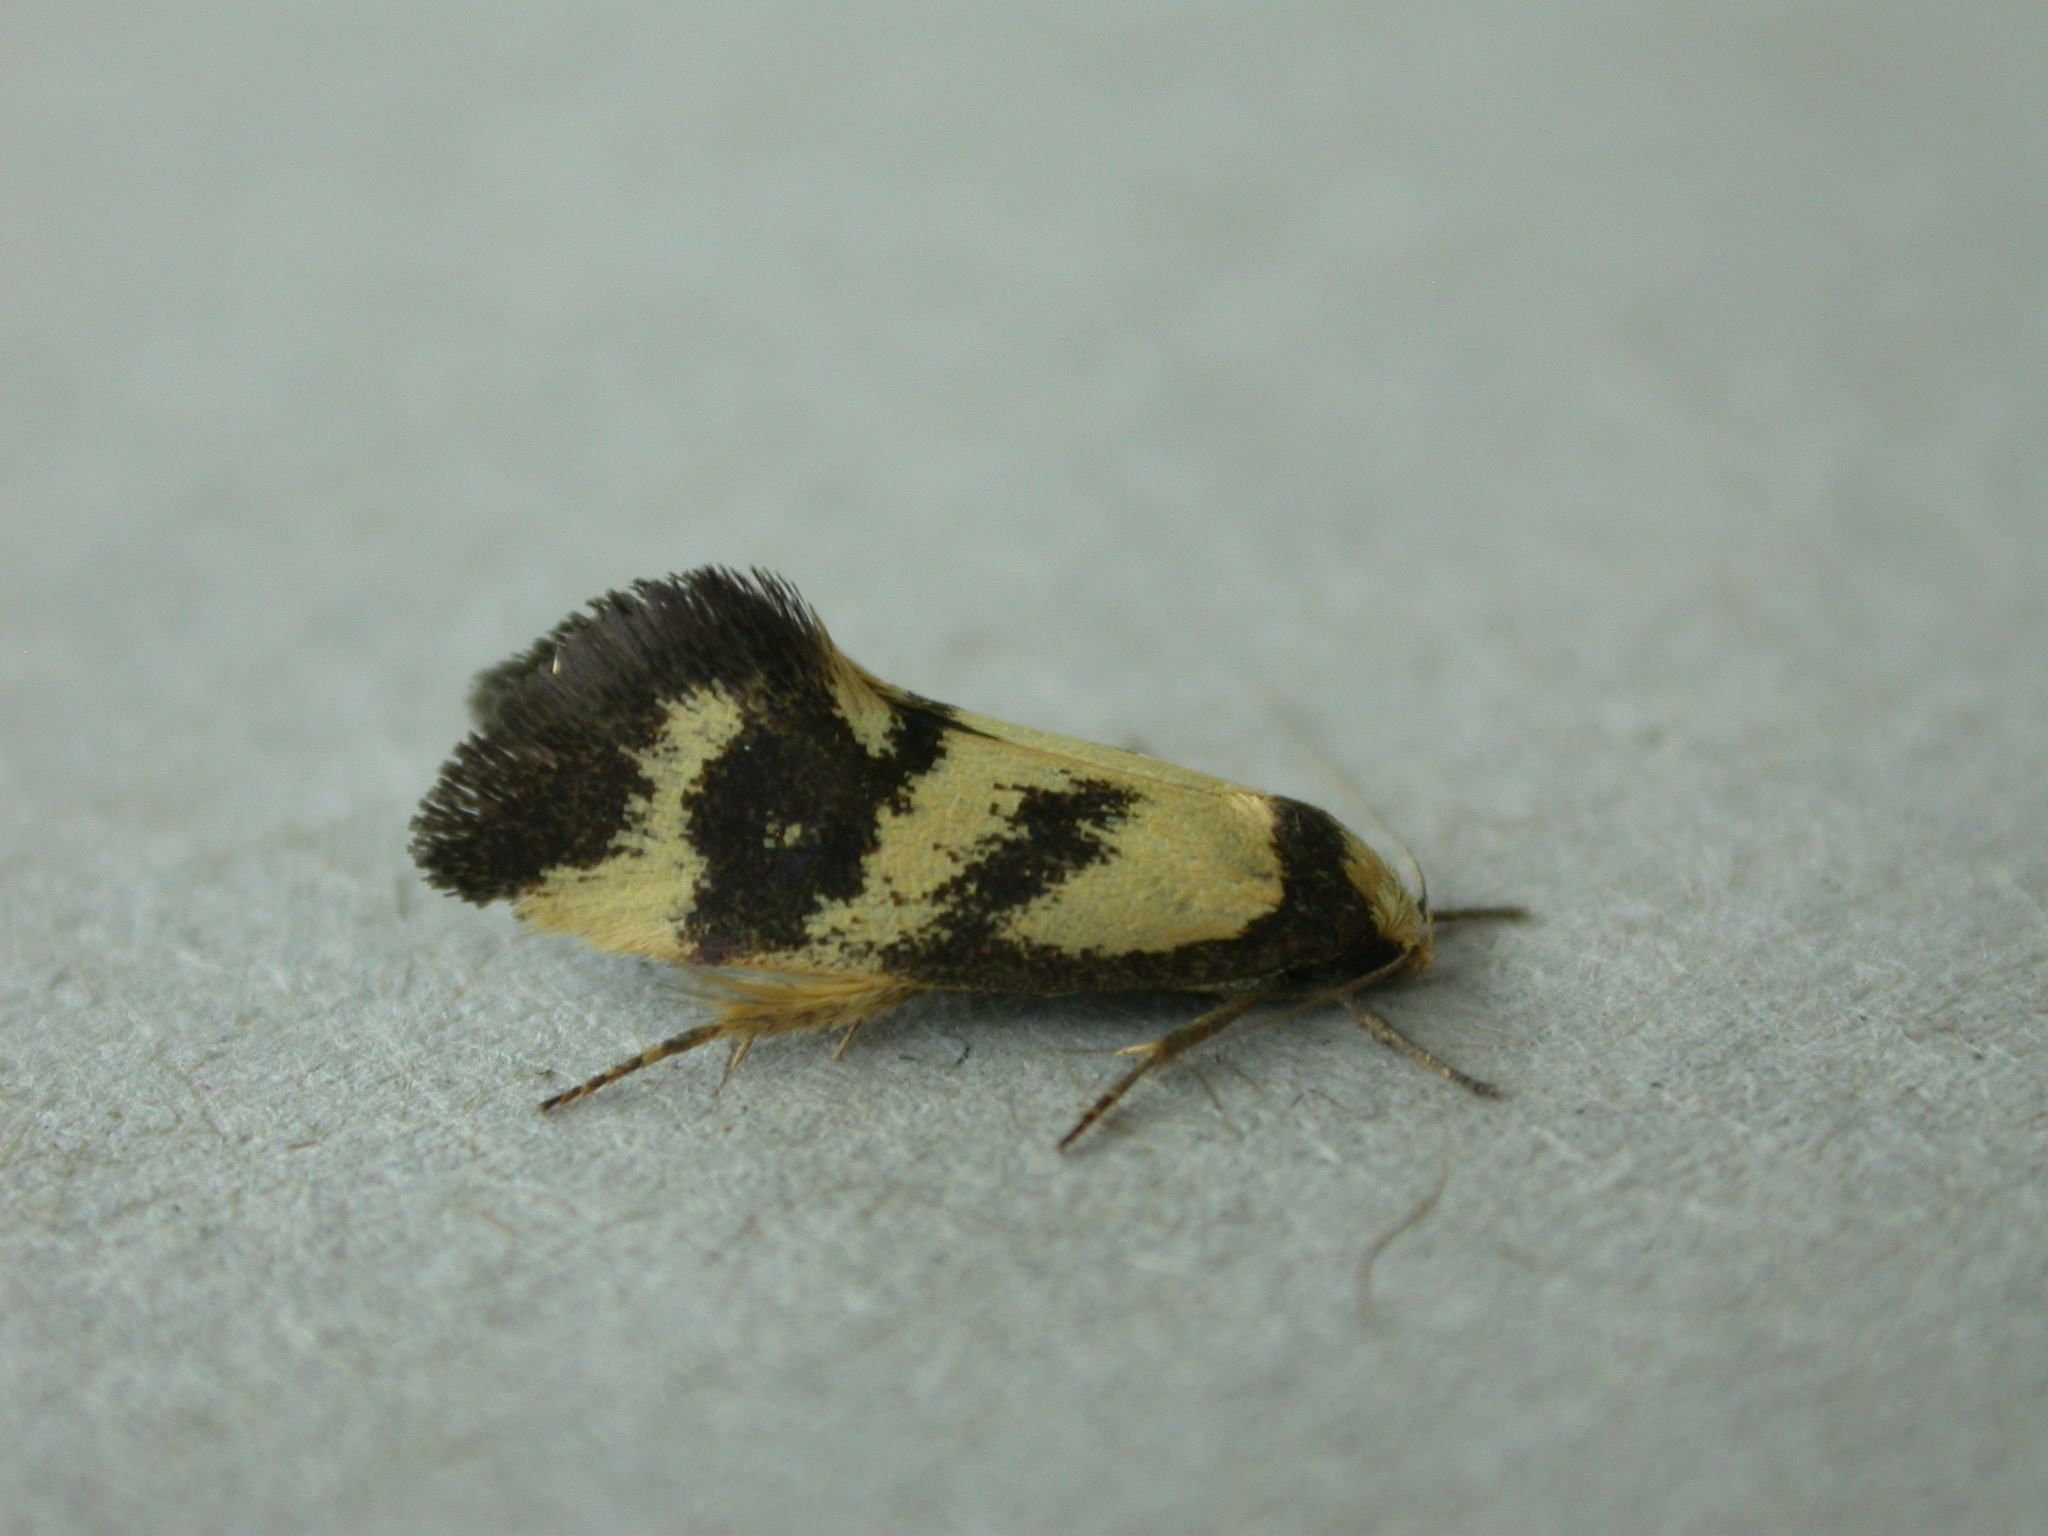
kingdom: Animalia
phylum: Arthropoda
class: Insecta
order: Lepidoptera
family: Oecophoridae
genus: Olbonoma
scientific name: Olbonoma triptycha
